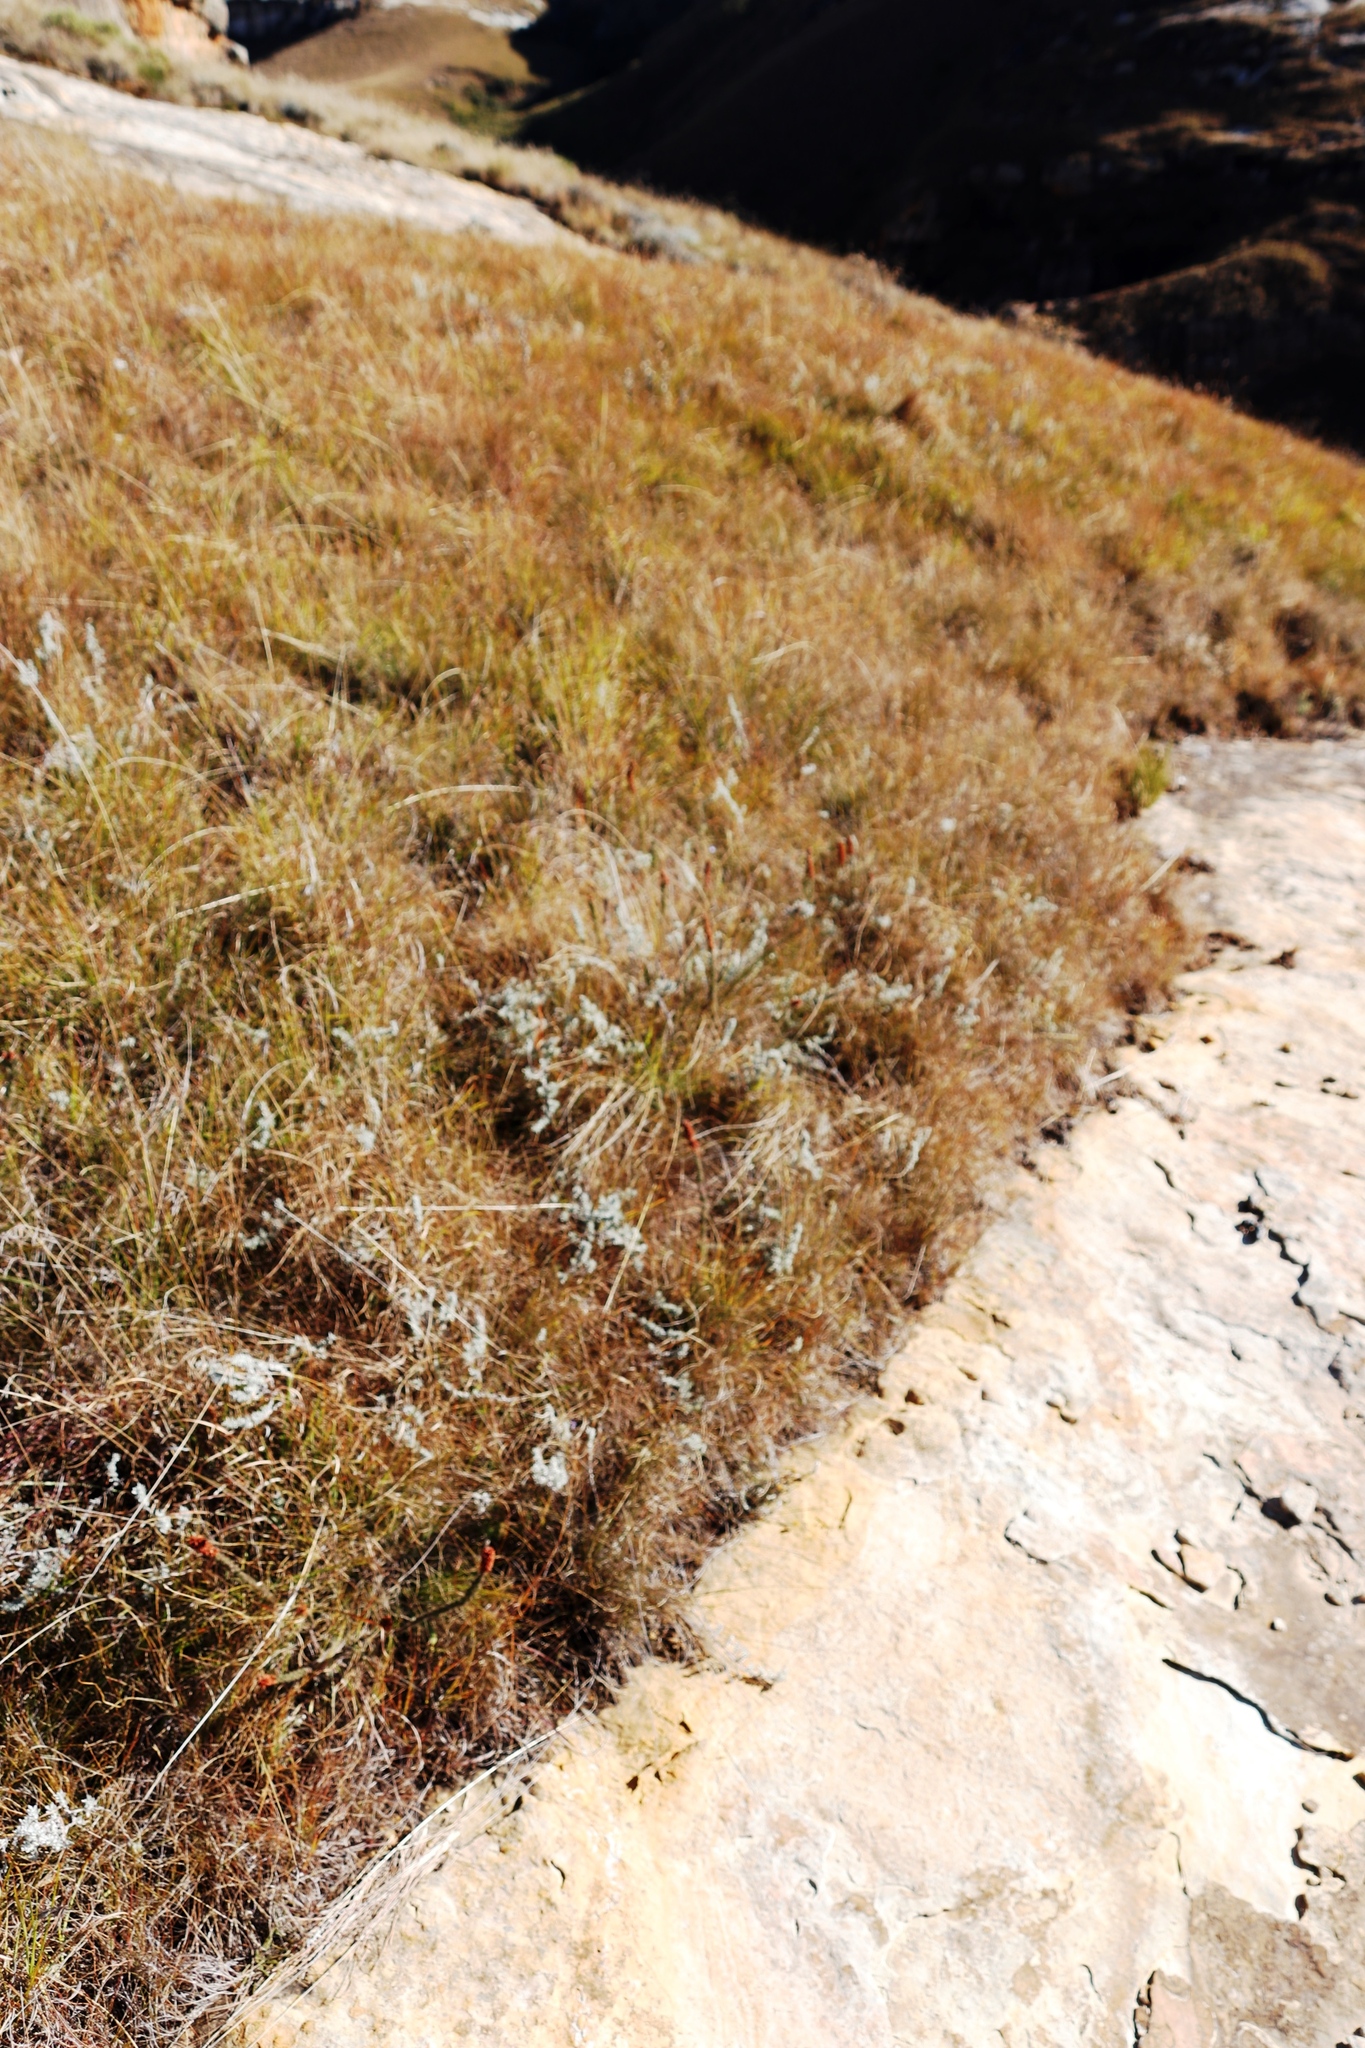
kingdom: Plantae
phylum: Tracheophyta
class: Magnoliopsida
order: Ericales
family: Ericaceae
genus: Erica
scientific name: Erica alopecurus
